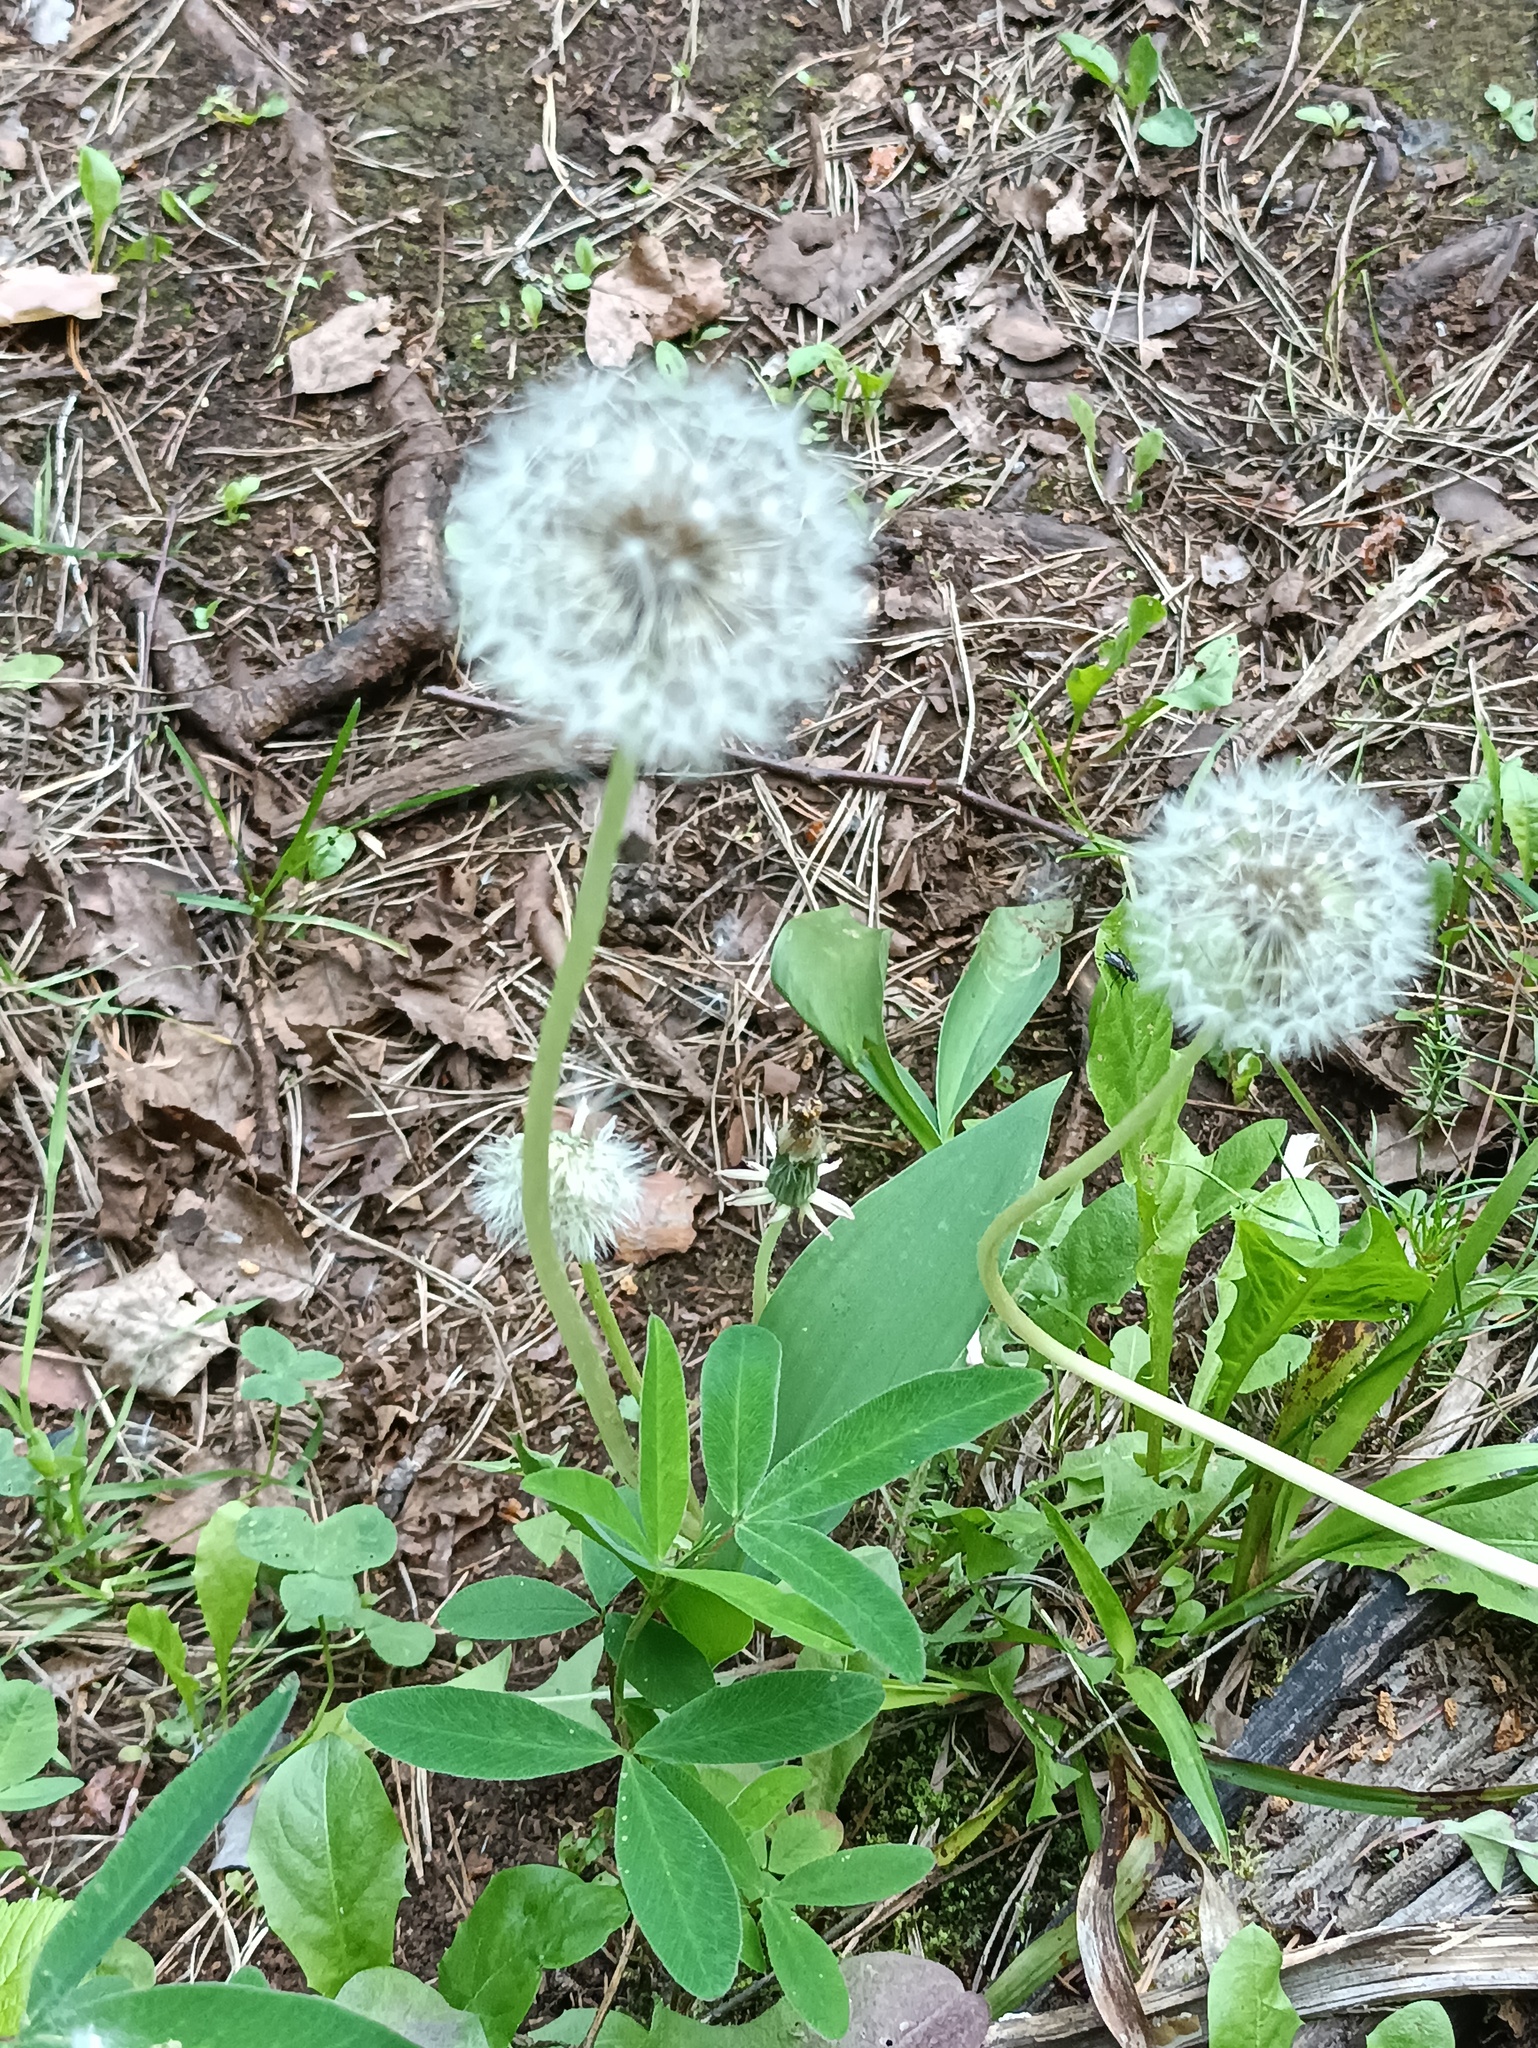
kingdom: Plantae
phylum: Tracheophyta
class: Magnoliopsida
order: Asterales
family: Asteraceae
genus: Taraxacum
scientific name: Taraxacum officinale
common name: Common dandelion
